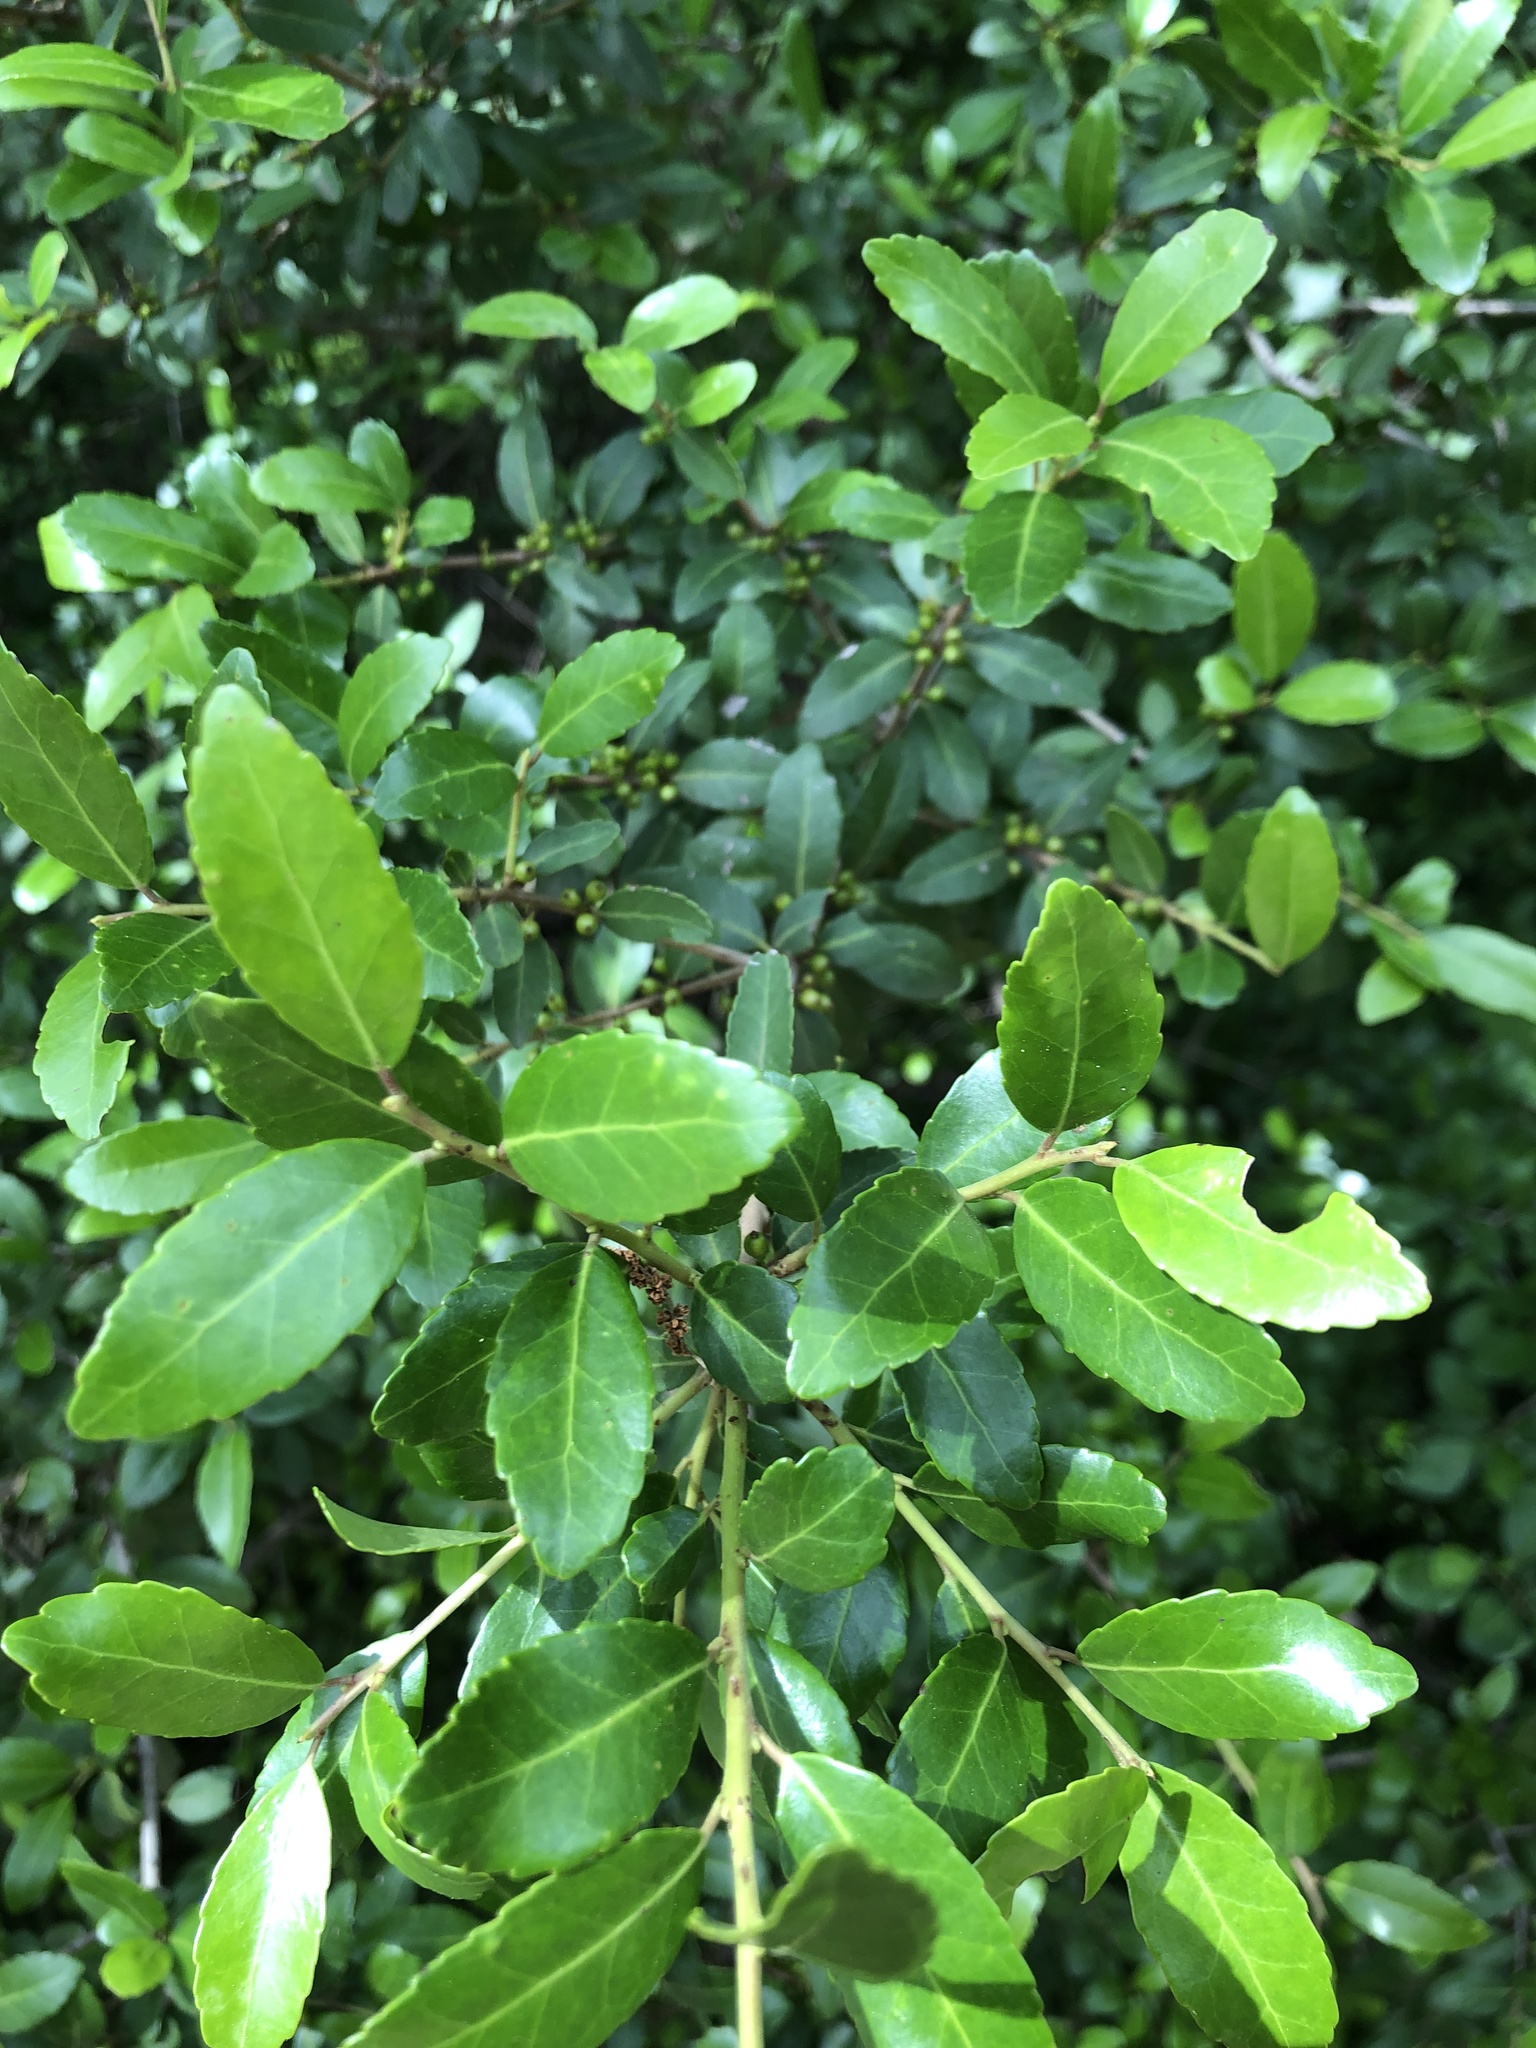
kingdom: Plantae
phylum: Tracheophyta
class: Magnoliopsida
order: Aquifoliales
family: Aquifoliaceae
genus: Ilex
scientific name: Ilex vomitoria
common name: Yaupon holly
